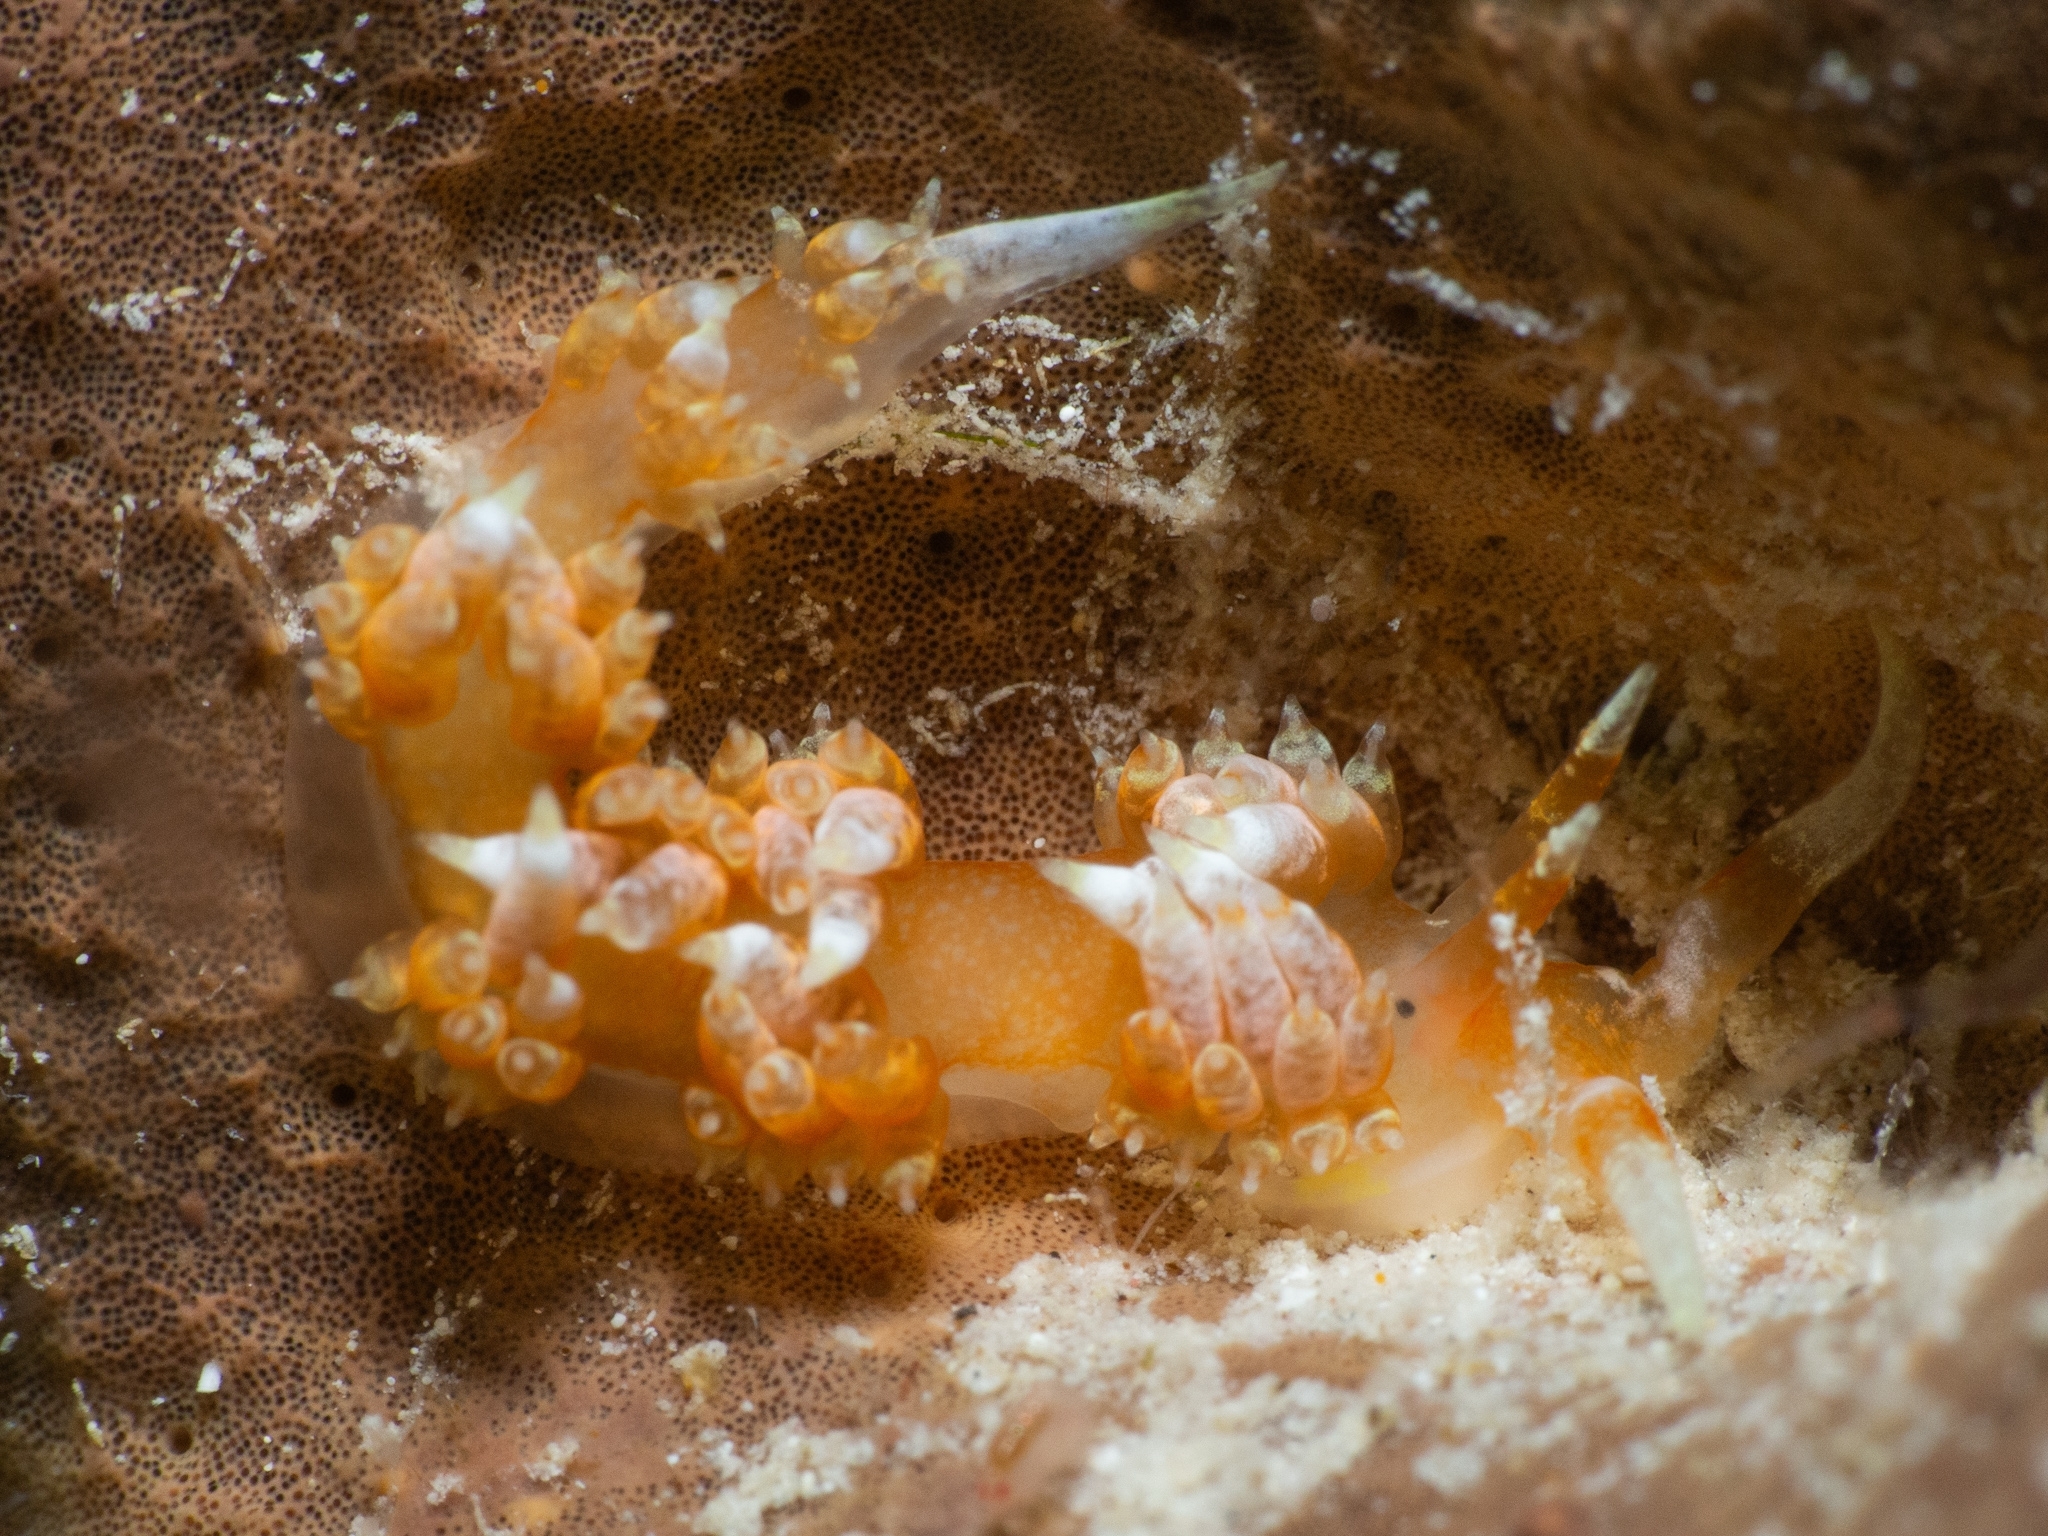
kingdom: Animalia
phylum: Mollusca
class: Gastropoda
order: Nudibranchia
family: Facelinidae
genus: Austraeolis
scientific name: Austraeolis catina
